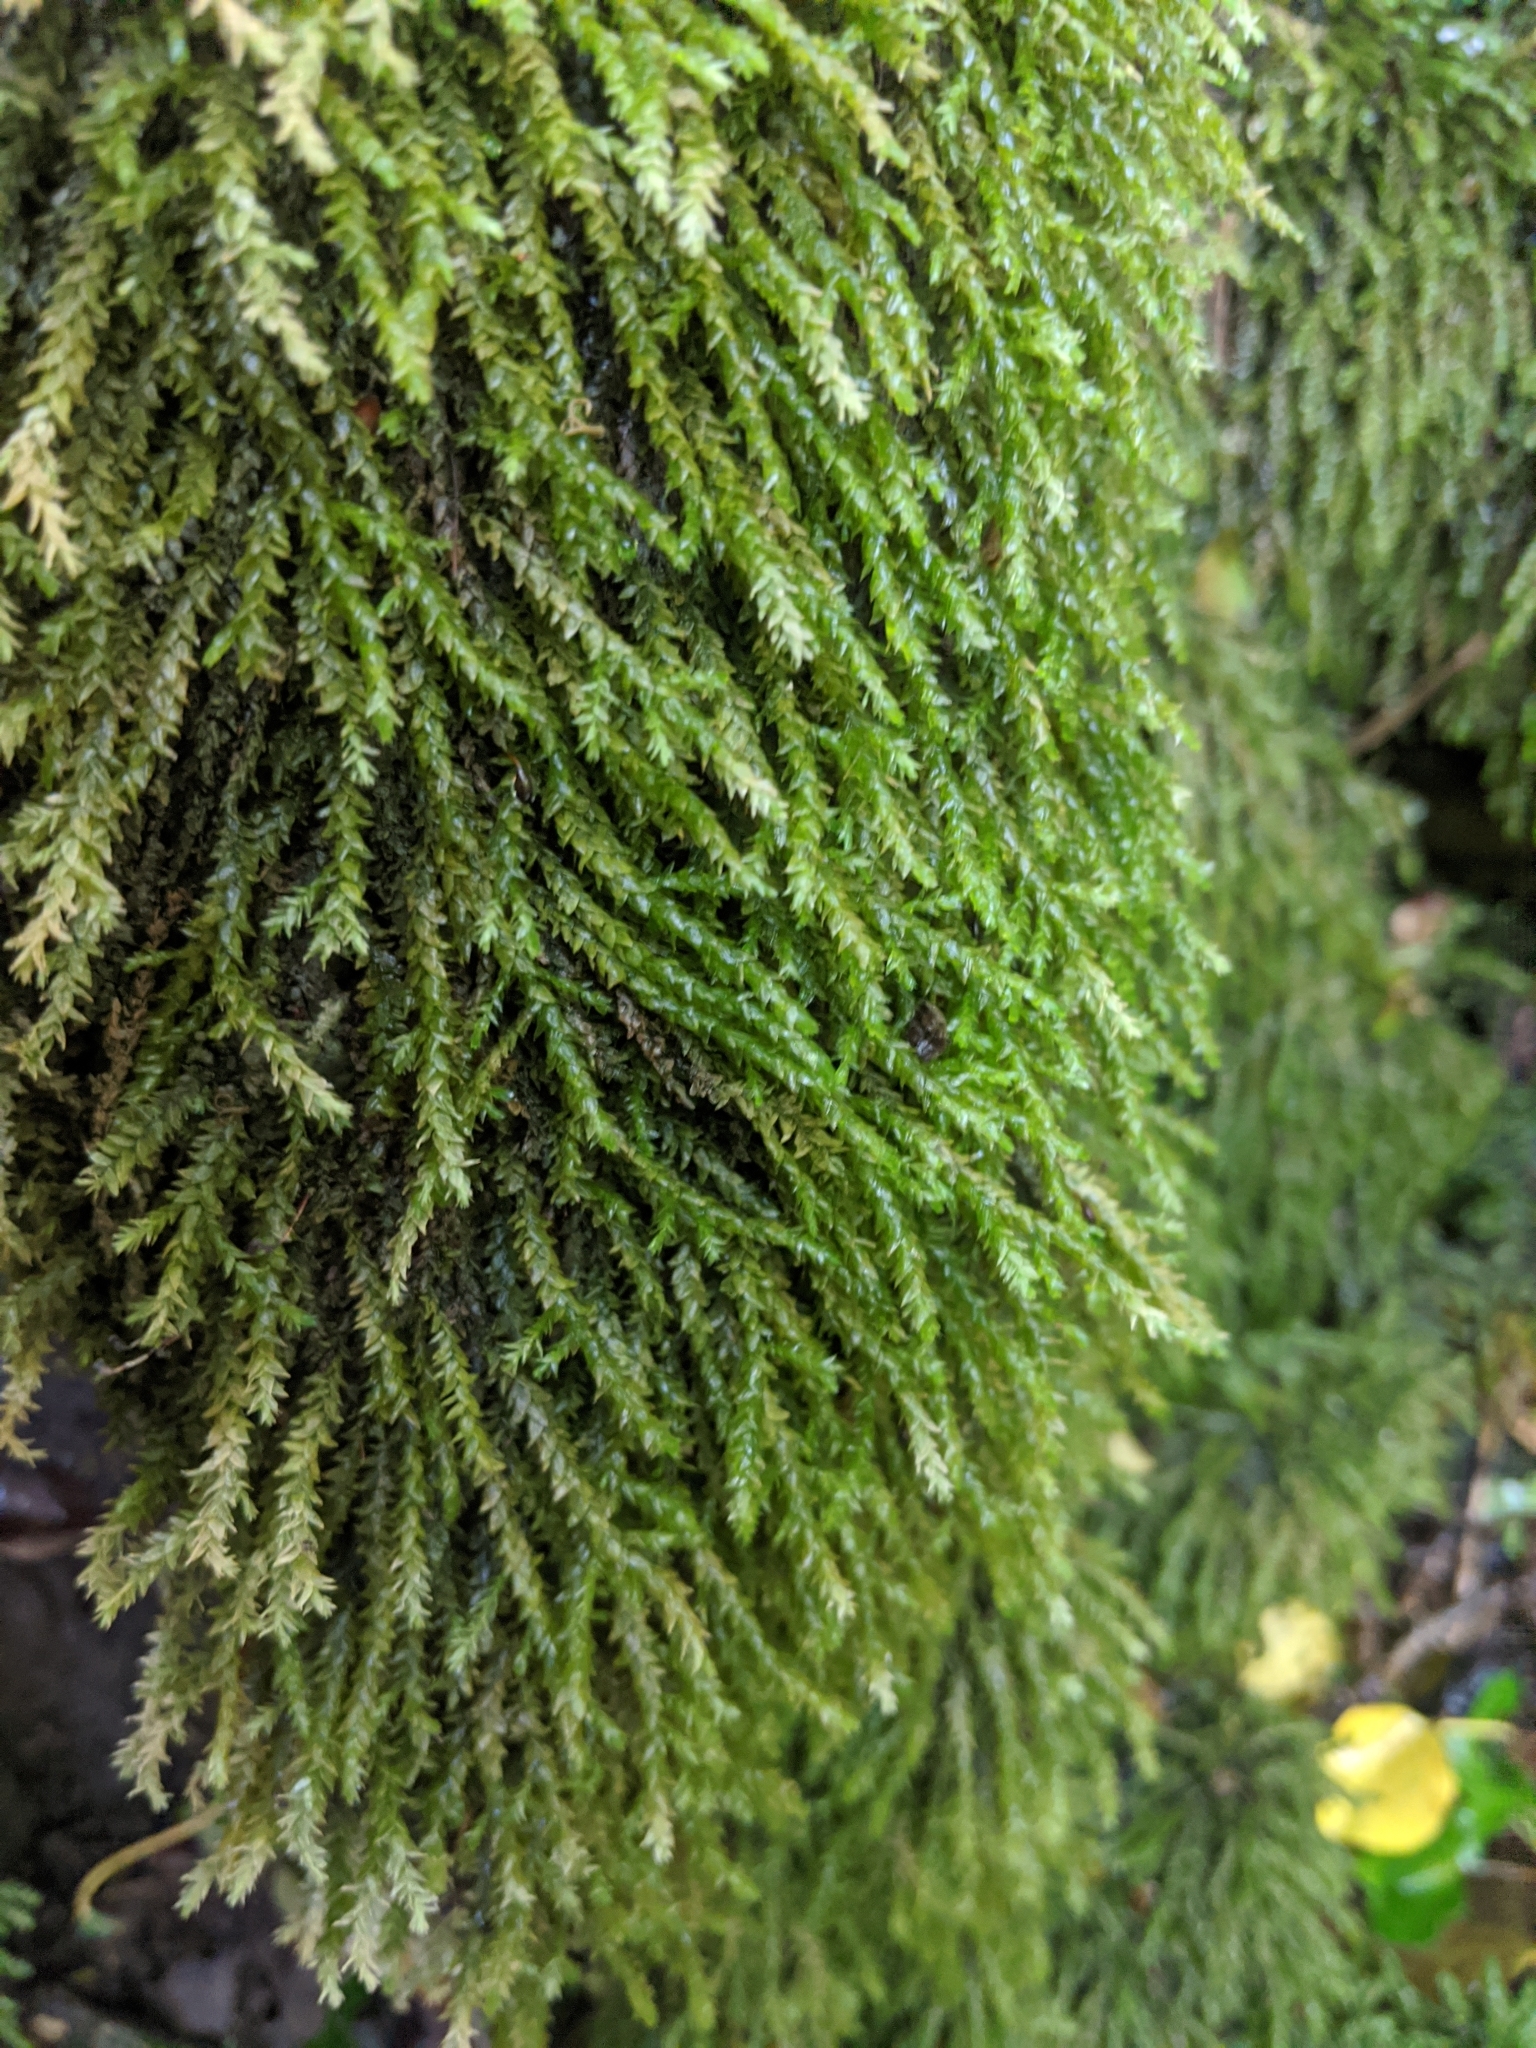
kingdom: Plantae
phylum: Bryophyta
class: Bryopsida
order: Hypnales
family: Brachytheciaceae
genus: Rhynchostegium
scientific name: Rhynchostegium riparioides
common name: Platyhypnidium moss
